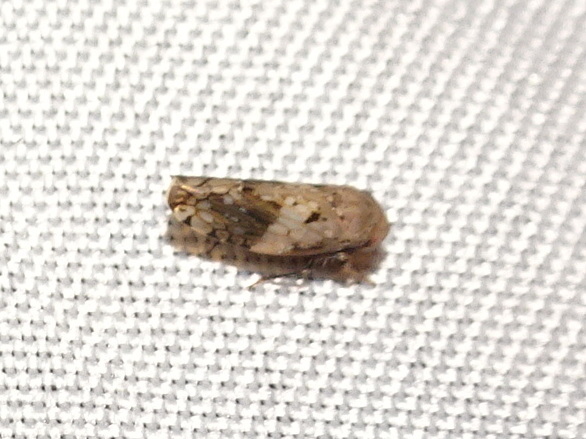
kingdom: Animalia
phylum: Arthropoda
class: Insecta
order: Hemiptera
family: Cicadellidae
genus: Menosoma
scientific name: Menosoma cinctum
